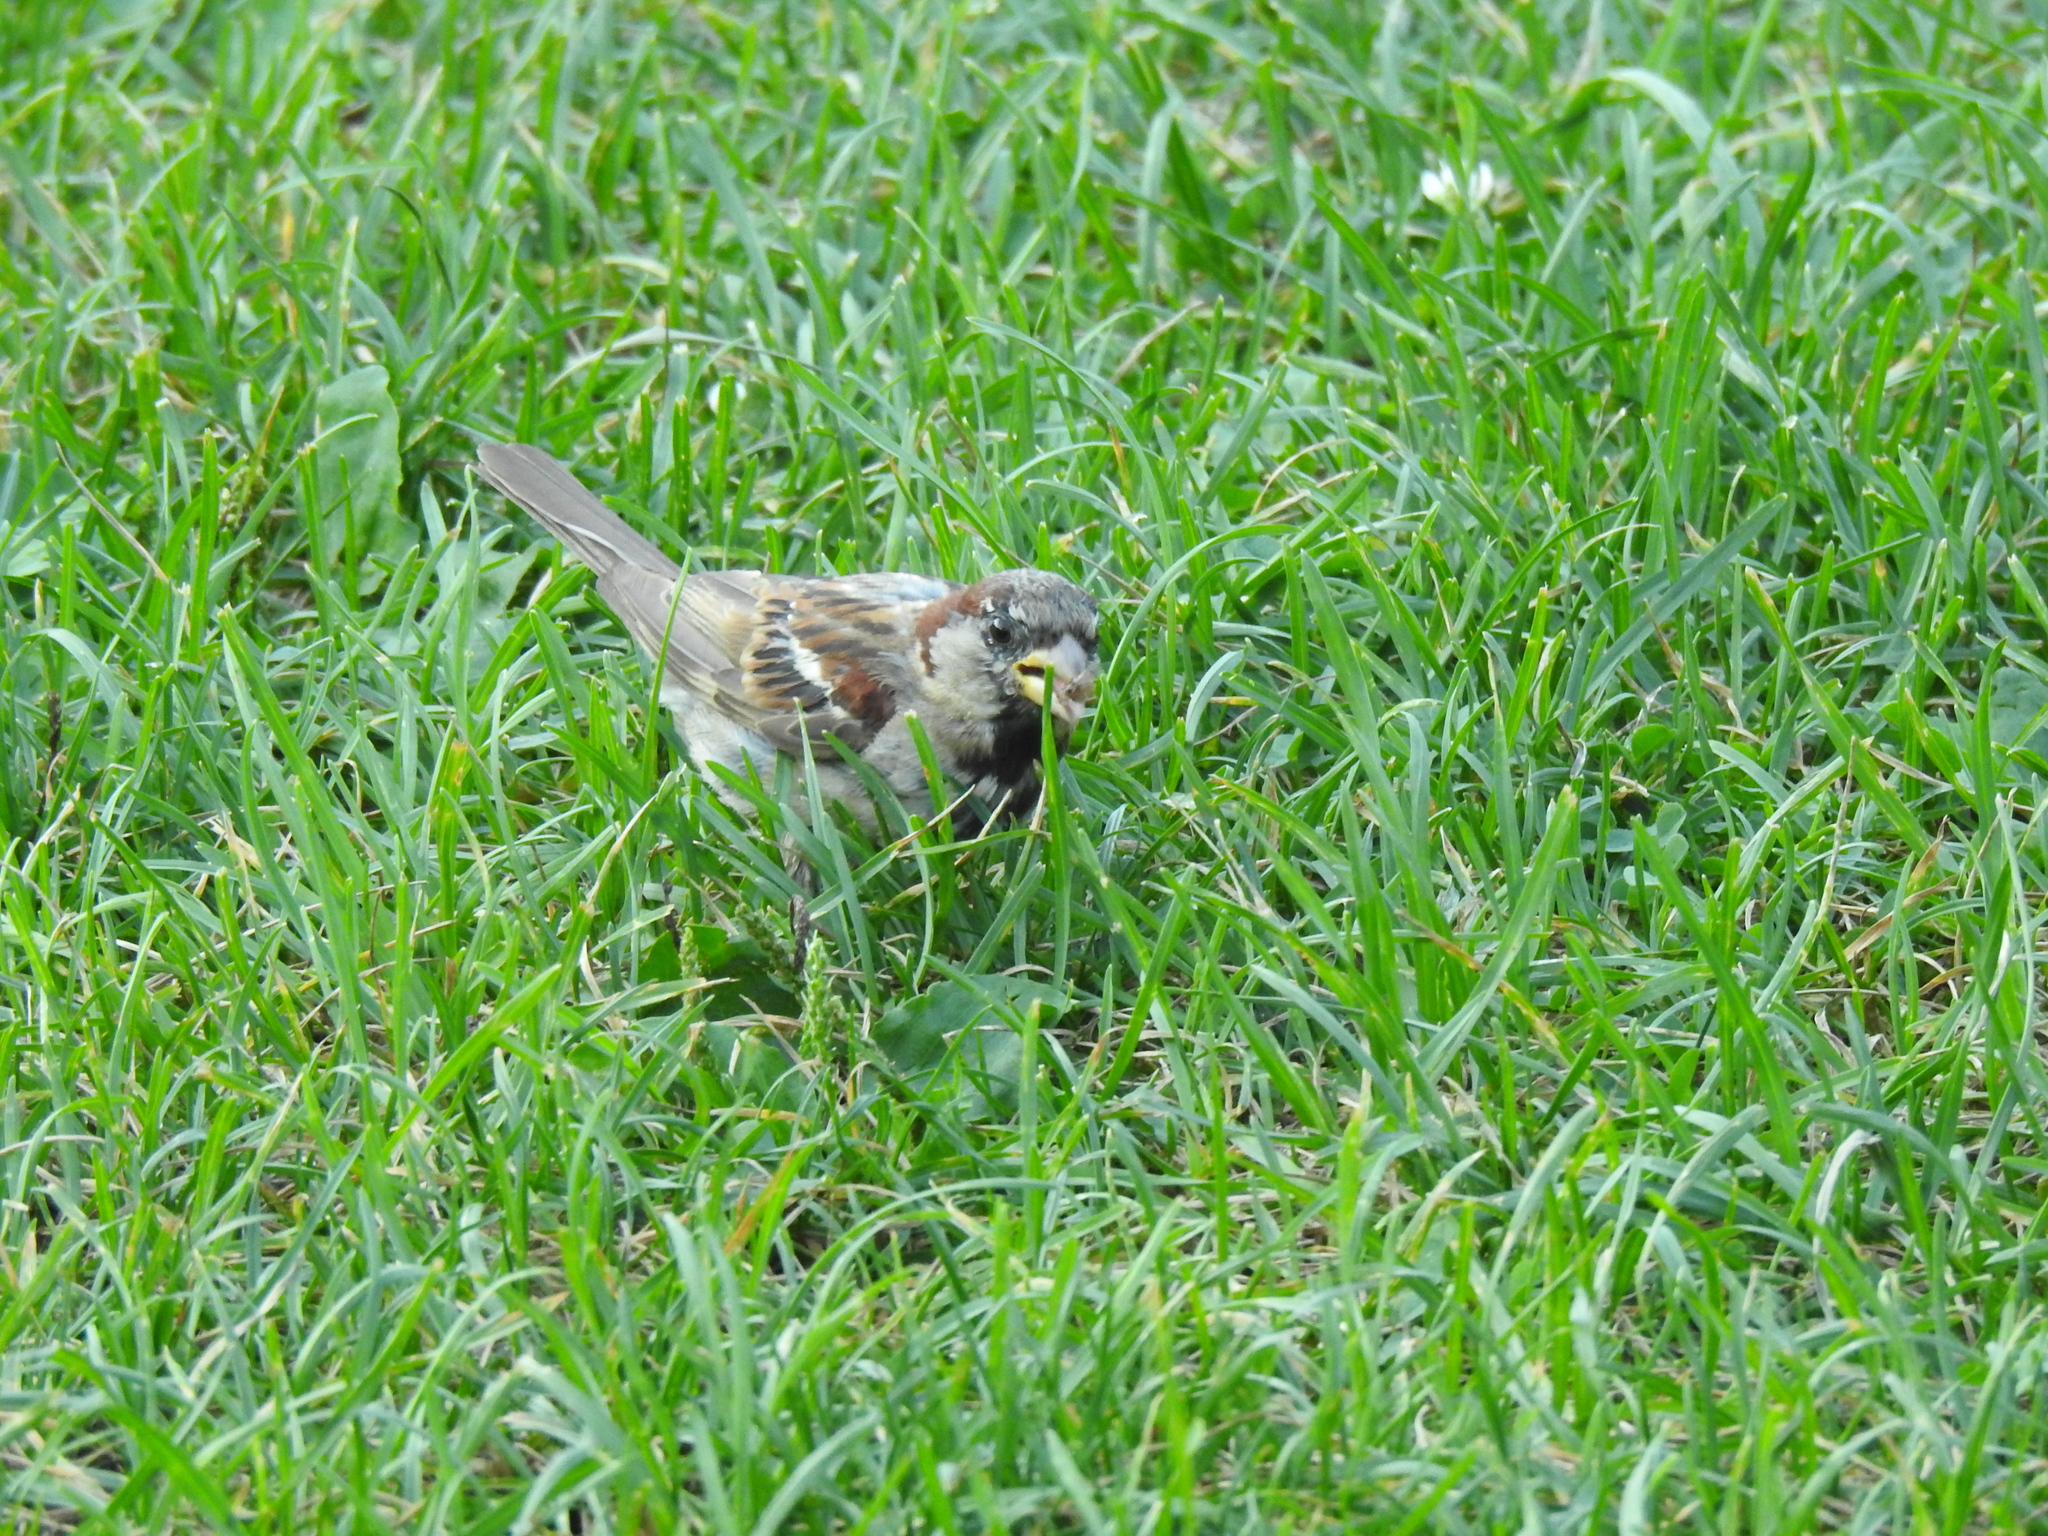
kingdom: Animalia
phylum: Chordata
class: Aves
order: Passeriformes
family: Passeridae
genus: Passer
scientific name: Passer domesticus
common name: House sparrow
